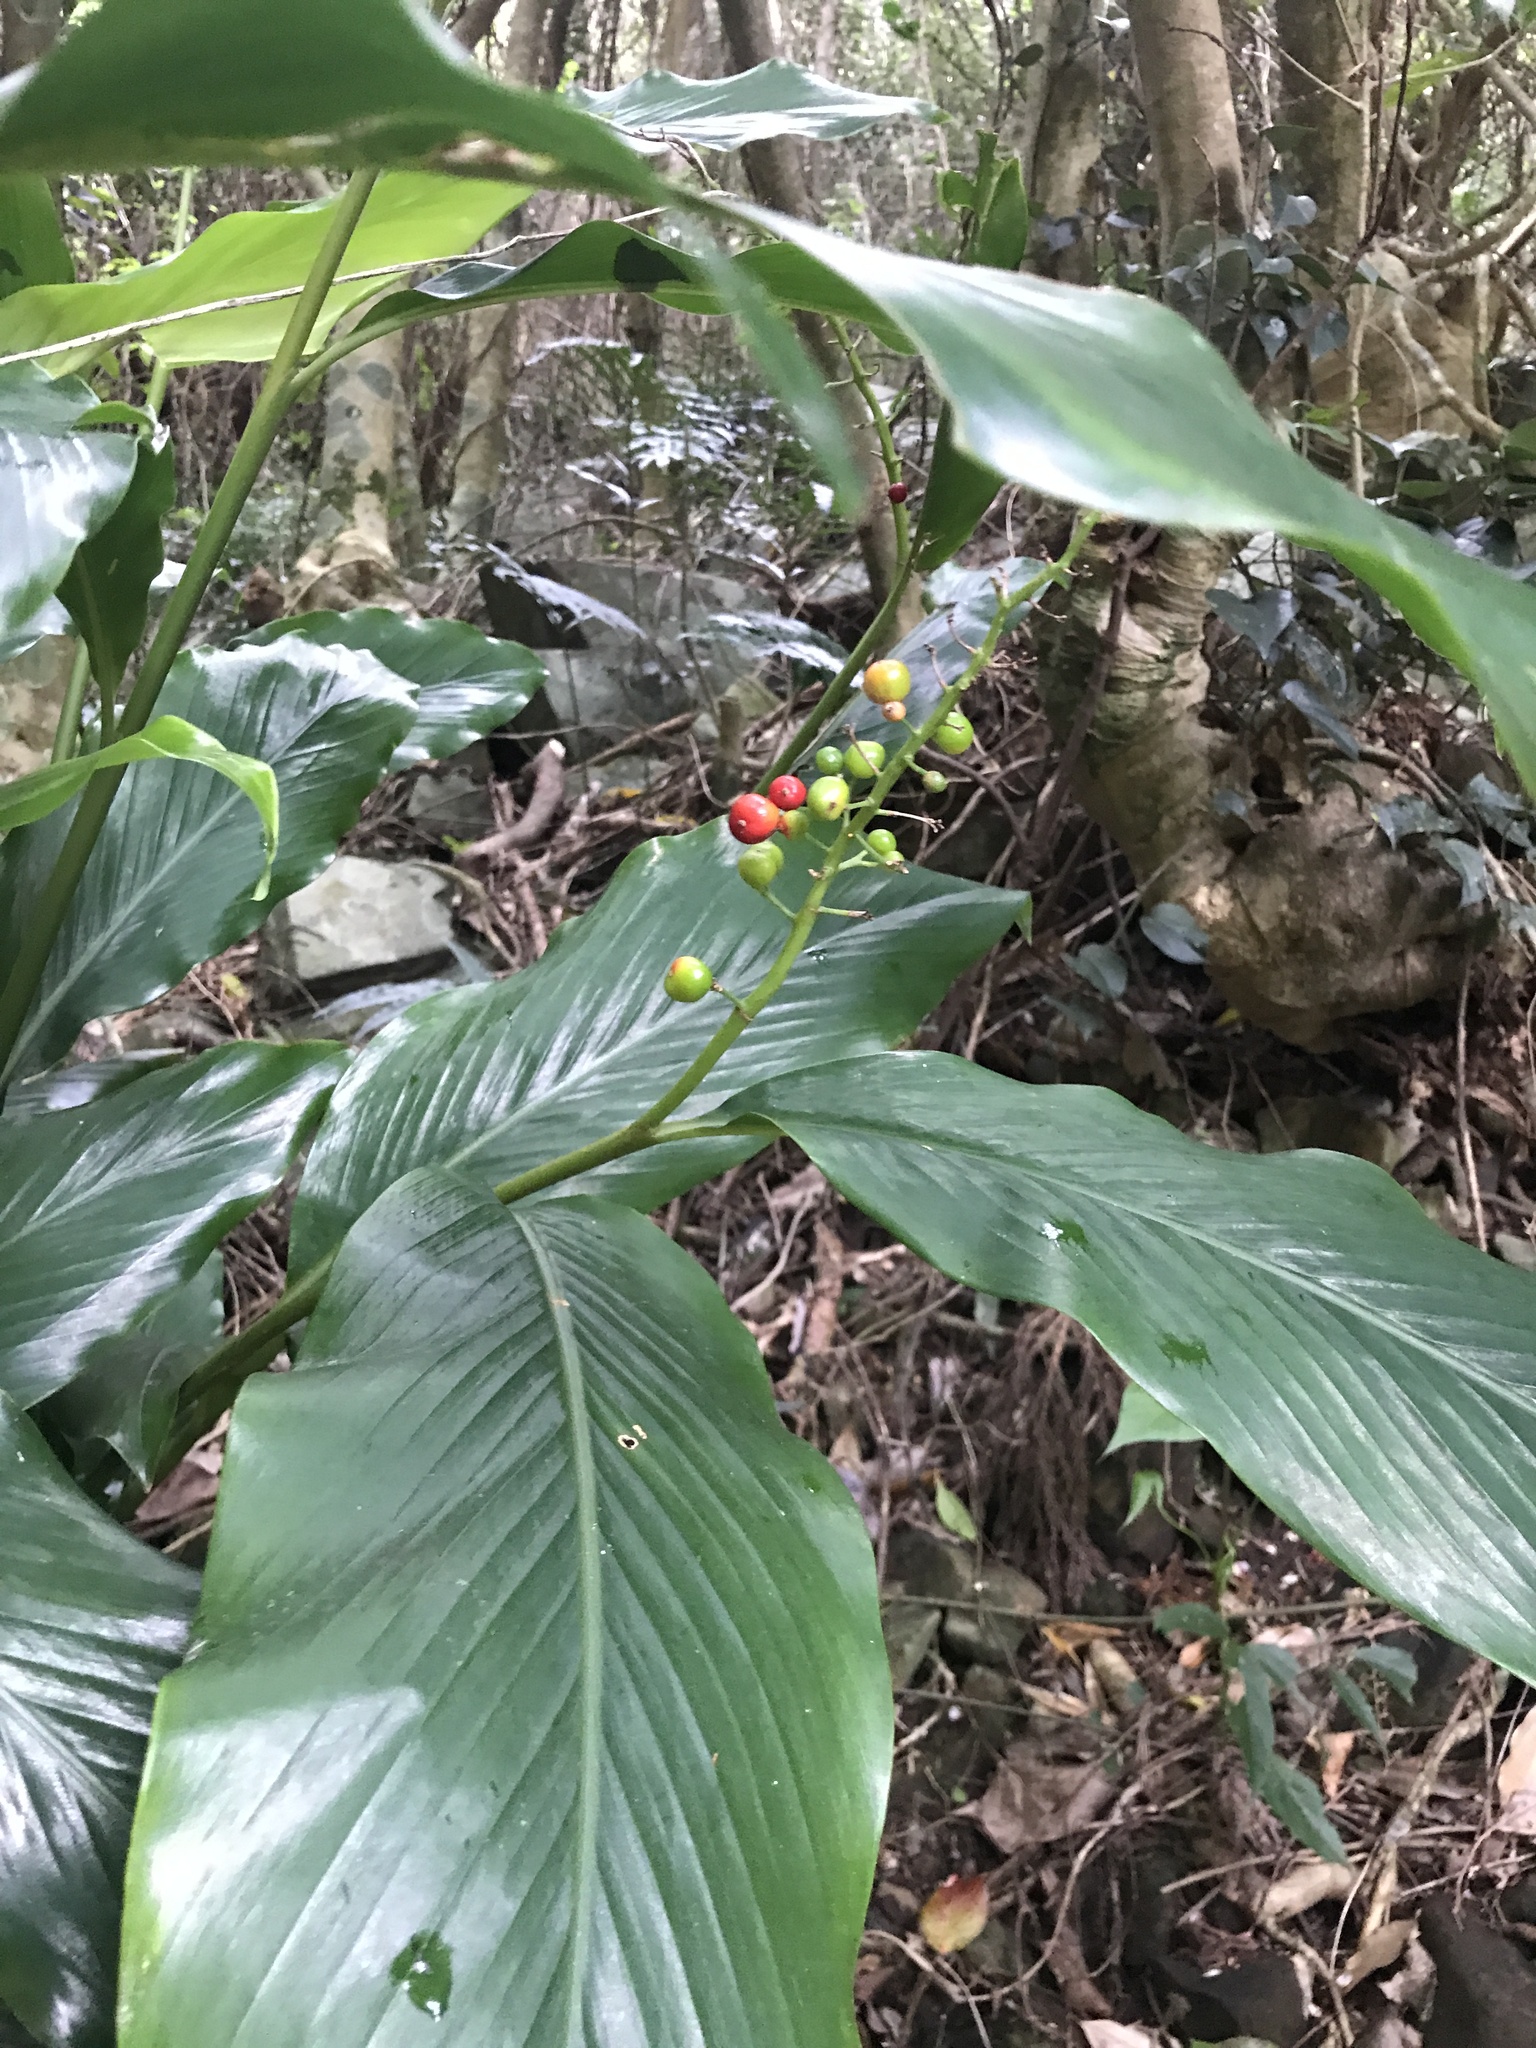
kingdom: Plantae
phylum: Tracheophyta
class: Liliopsida
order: Zingiberales
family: Zingiberaceae
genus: Alpinia
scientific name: Alpinia intermedia
